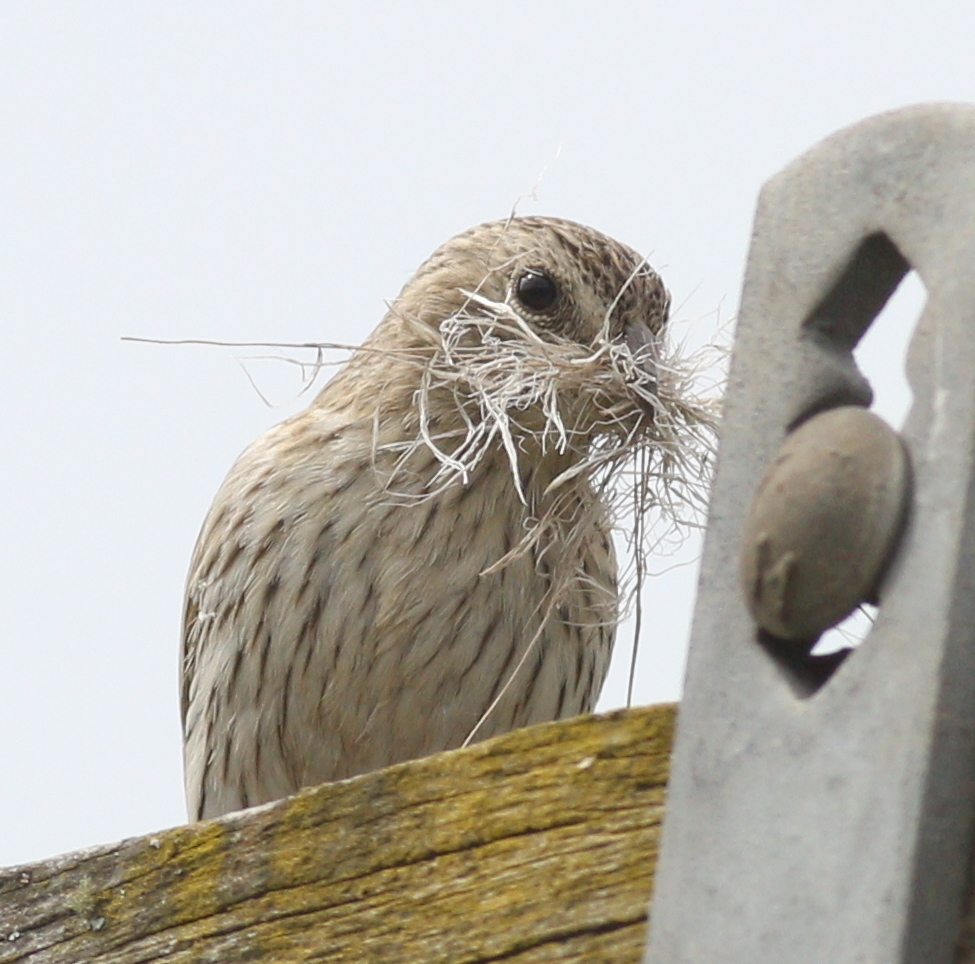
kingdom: Animalia
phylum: Chordata
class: Aves
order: Passeriformes
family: Thraupidae
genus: Sicalis
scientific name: Sicalis flaveola
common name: Saffron finch
